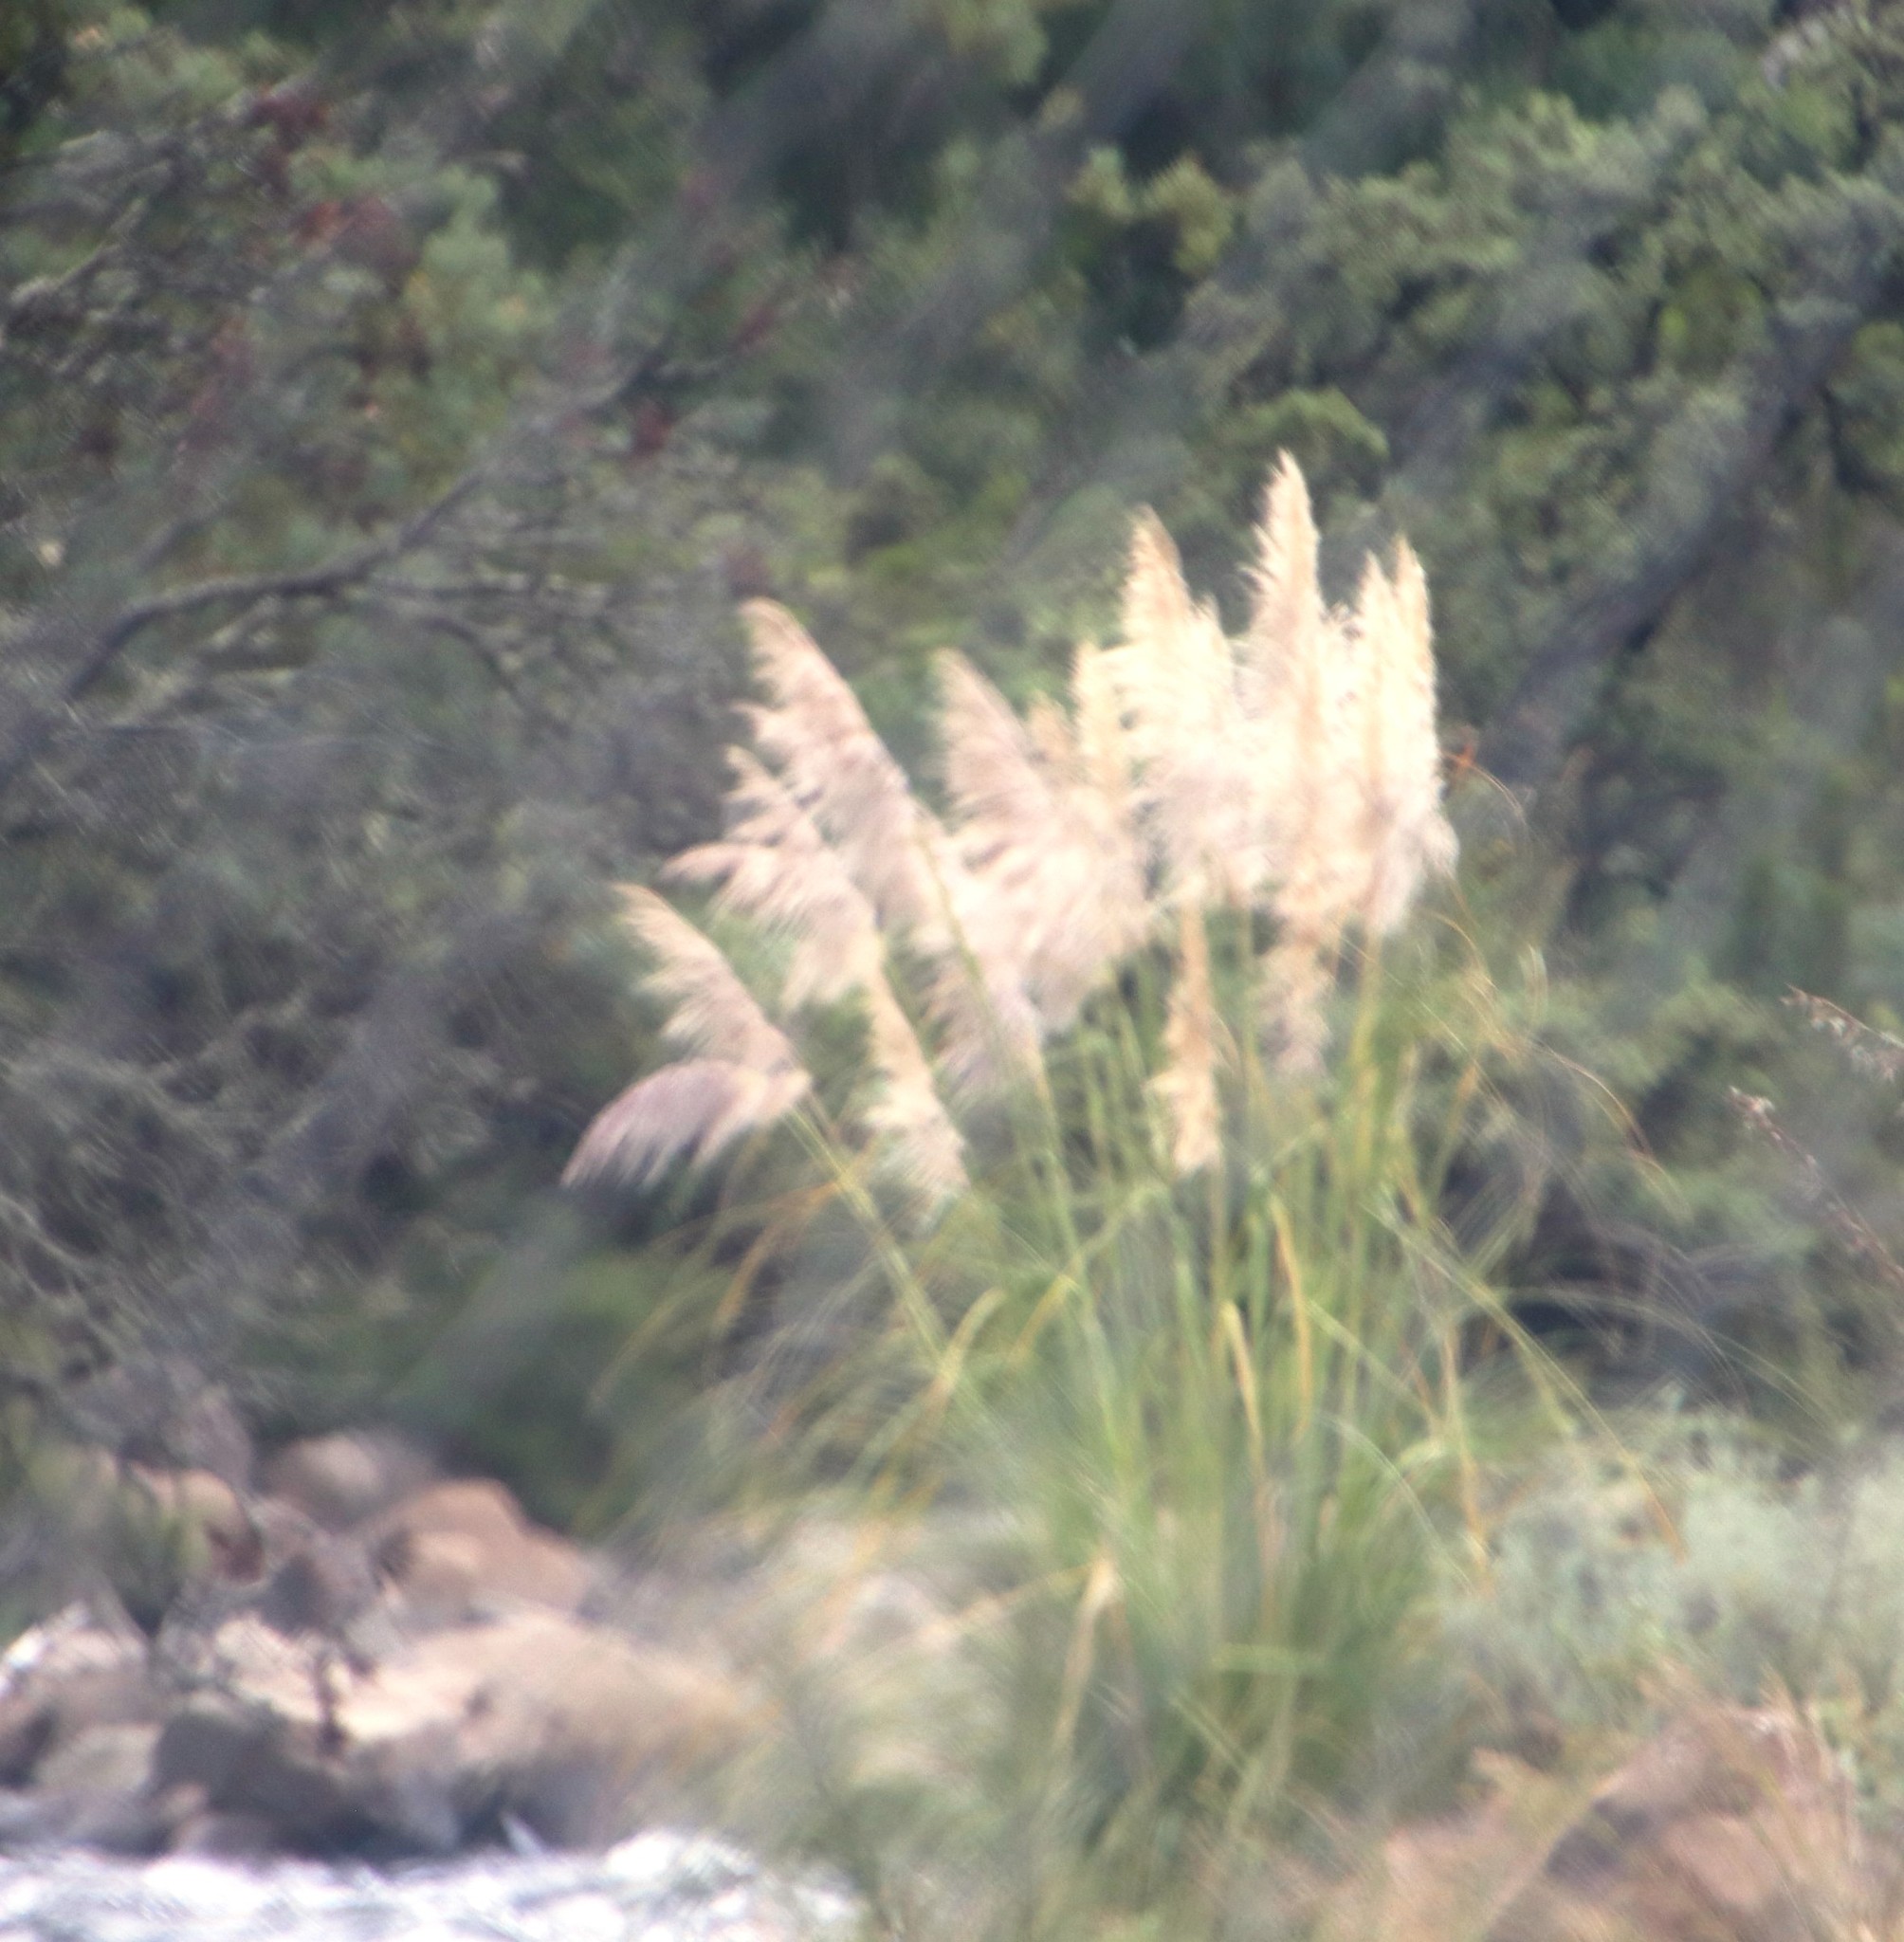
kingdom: Plantae
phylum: Tracheophyta
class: Liliopsida
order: Poales
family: Poaceae
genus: Cortaderia
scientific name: Cortaderia selloana
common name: Uruguayan pampas grass
